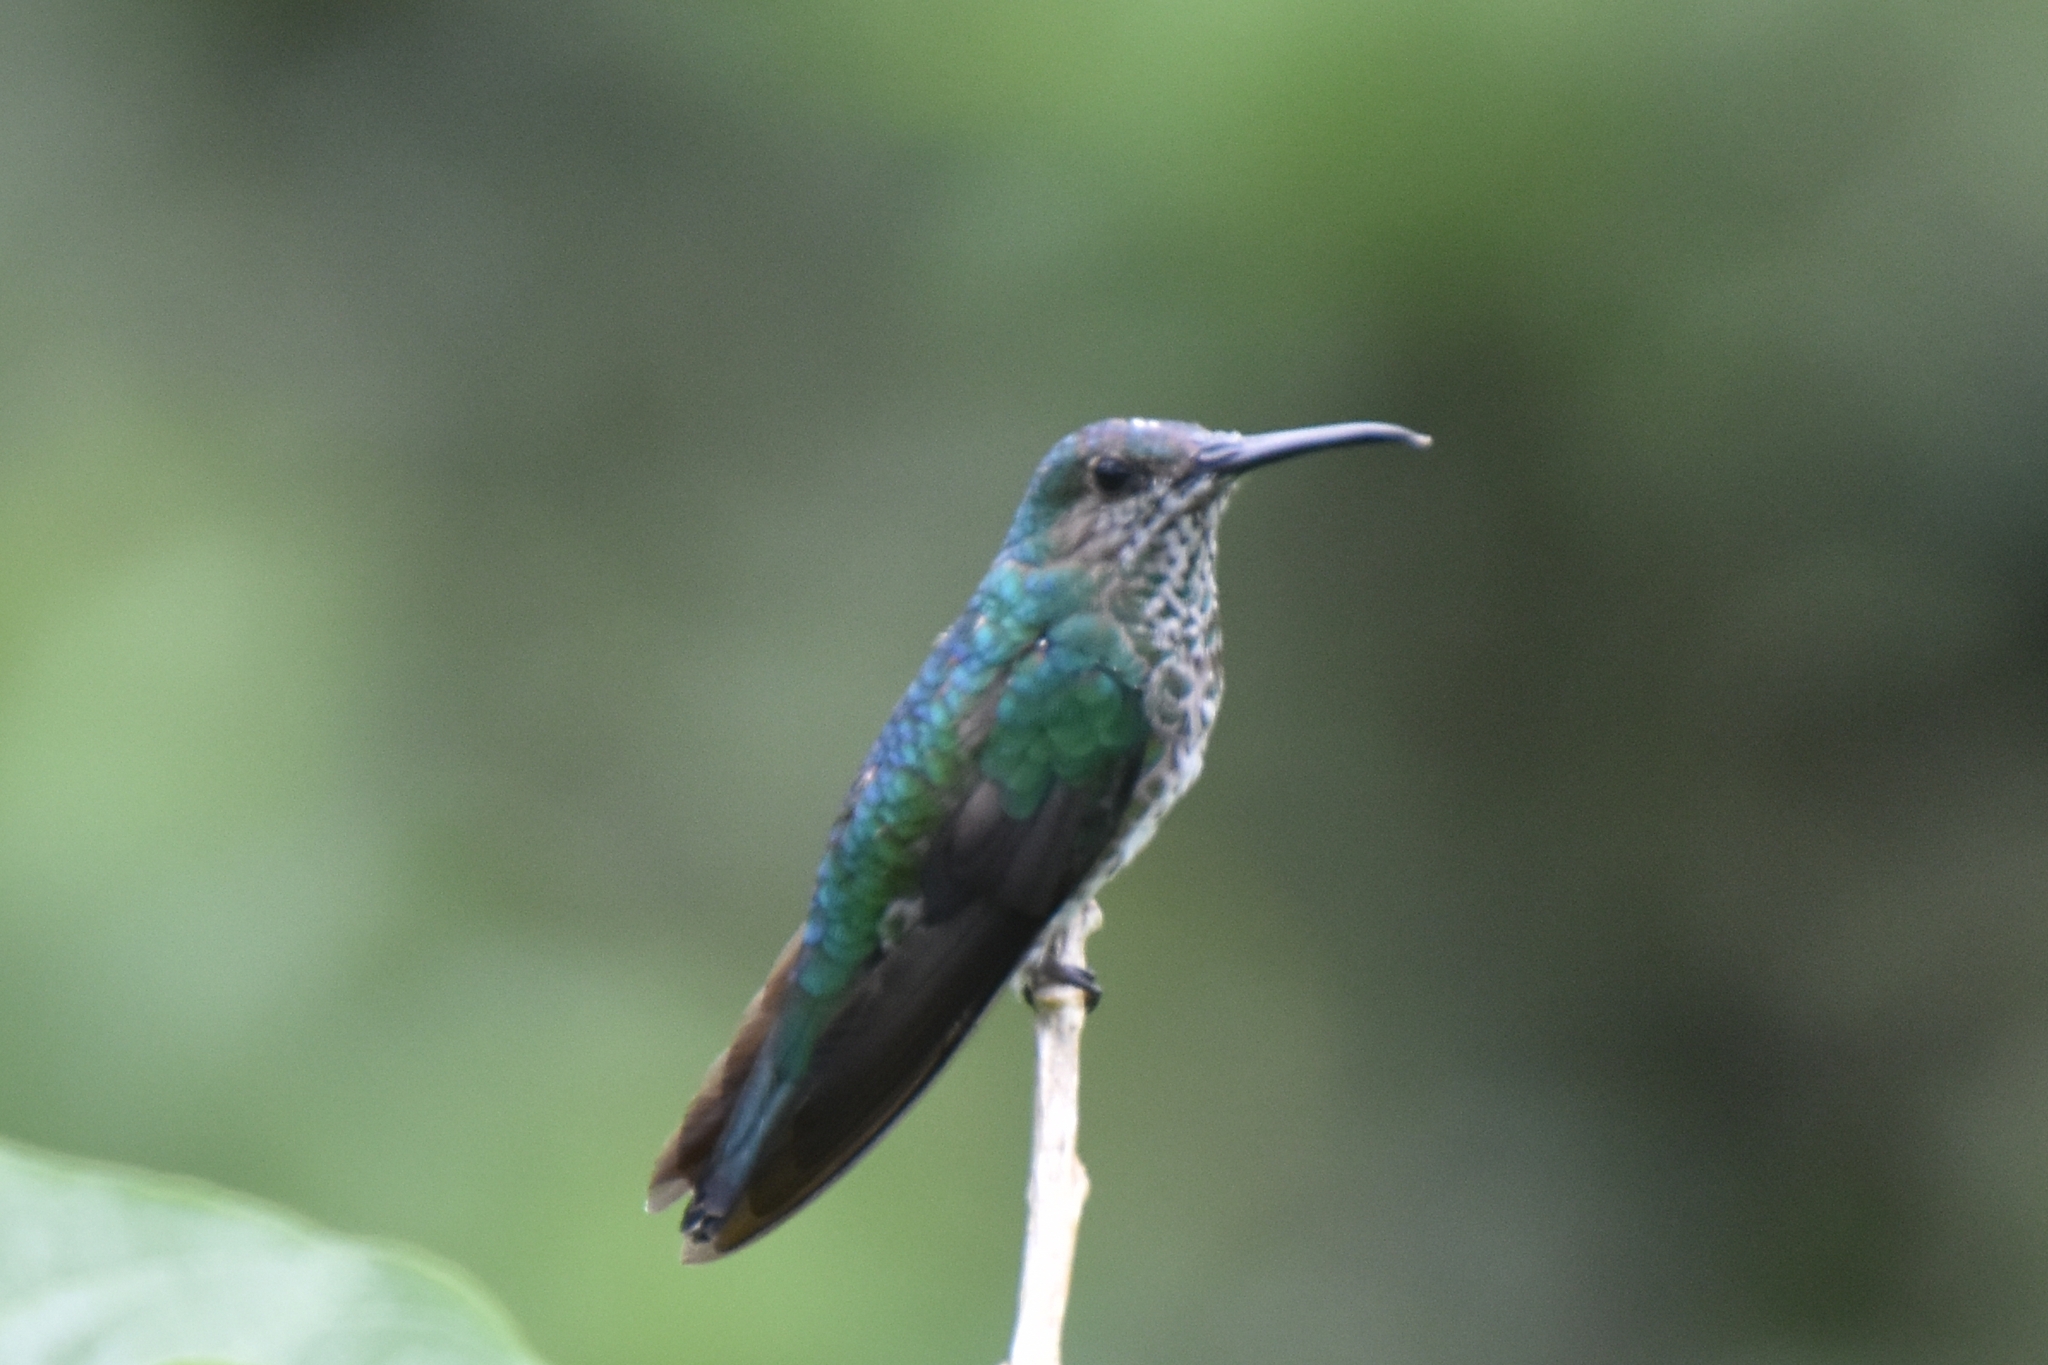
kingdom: Animalia
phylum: Chordata
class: Aves
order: Apodiformes
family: Trochilidae
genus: Florisuga
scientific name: Florisuga mellivora
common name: White-necked jacobin
